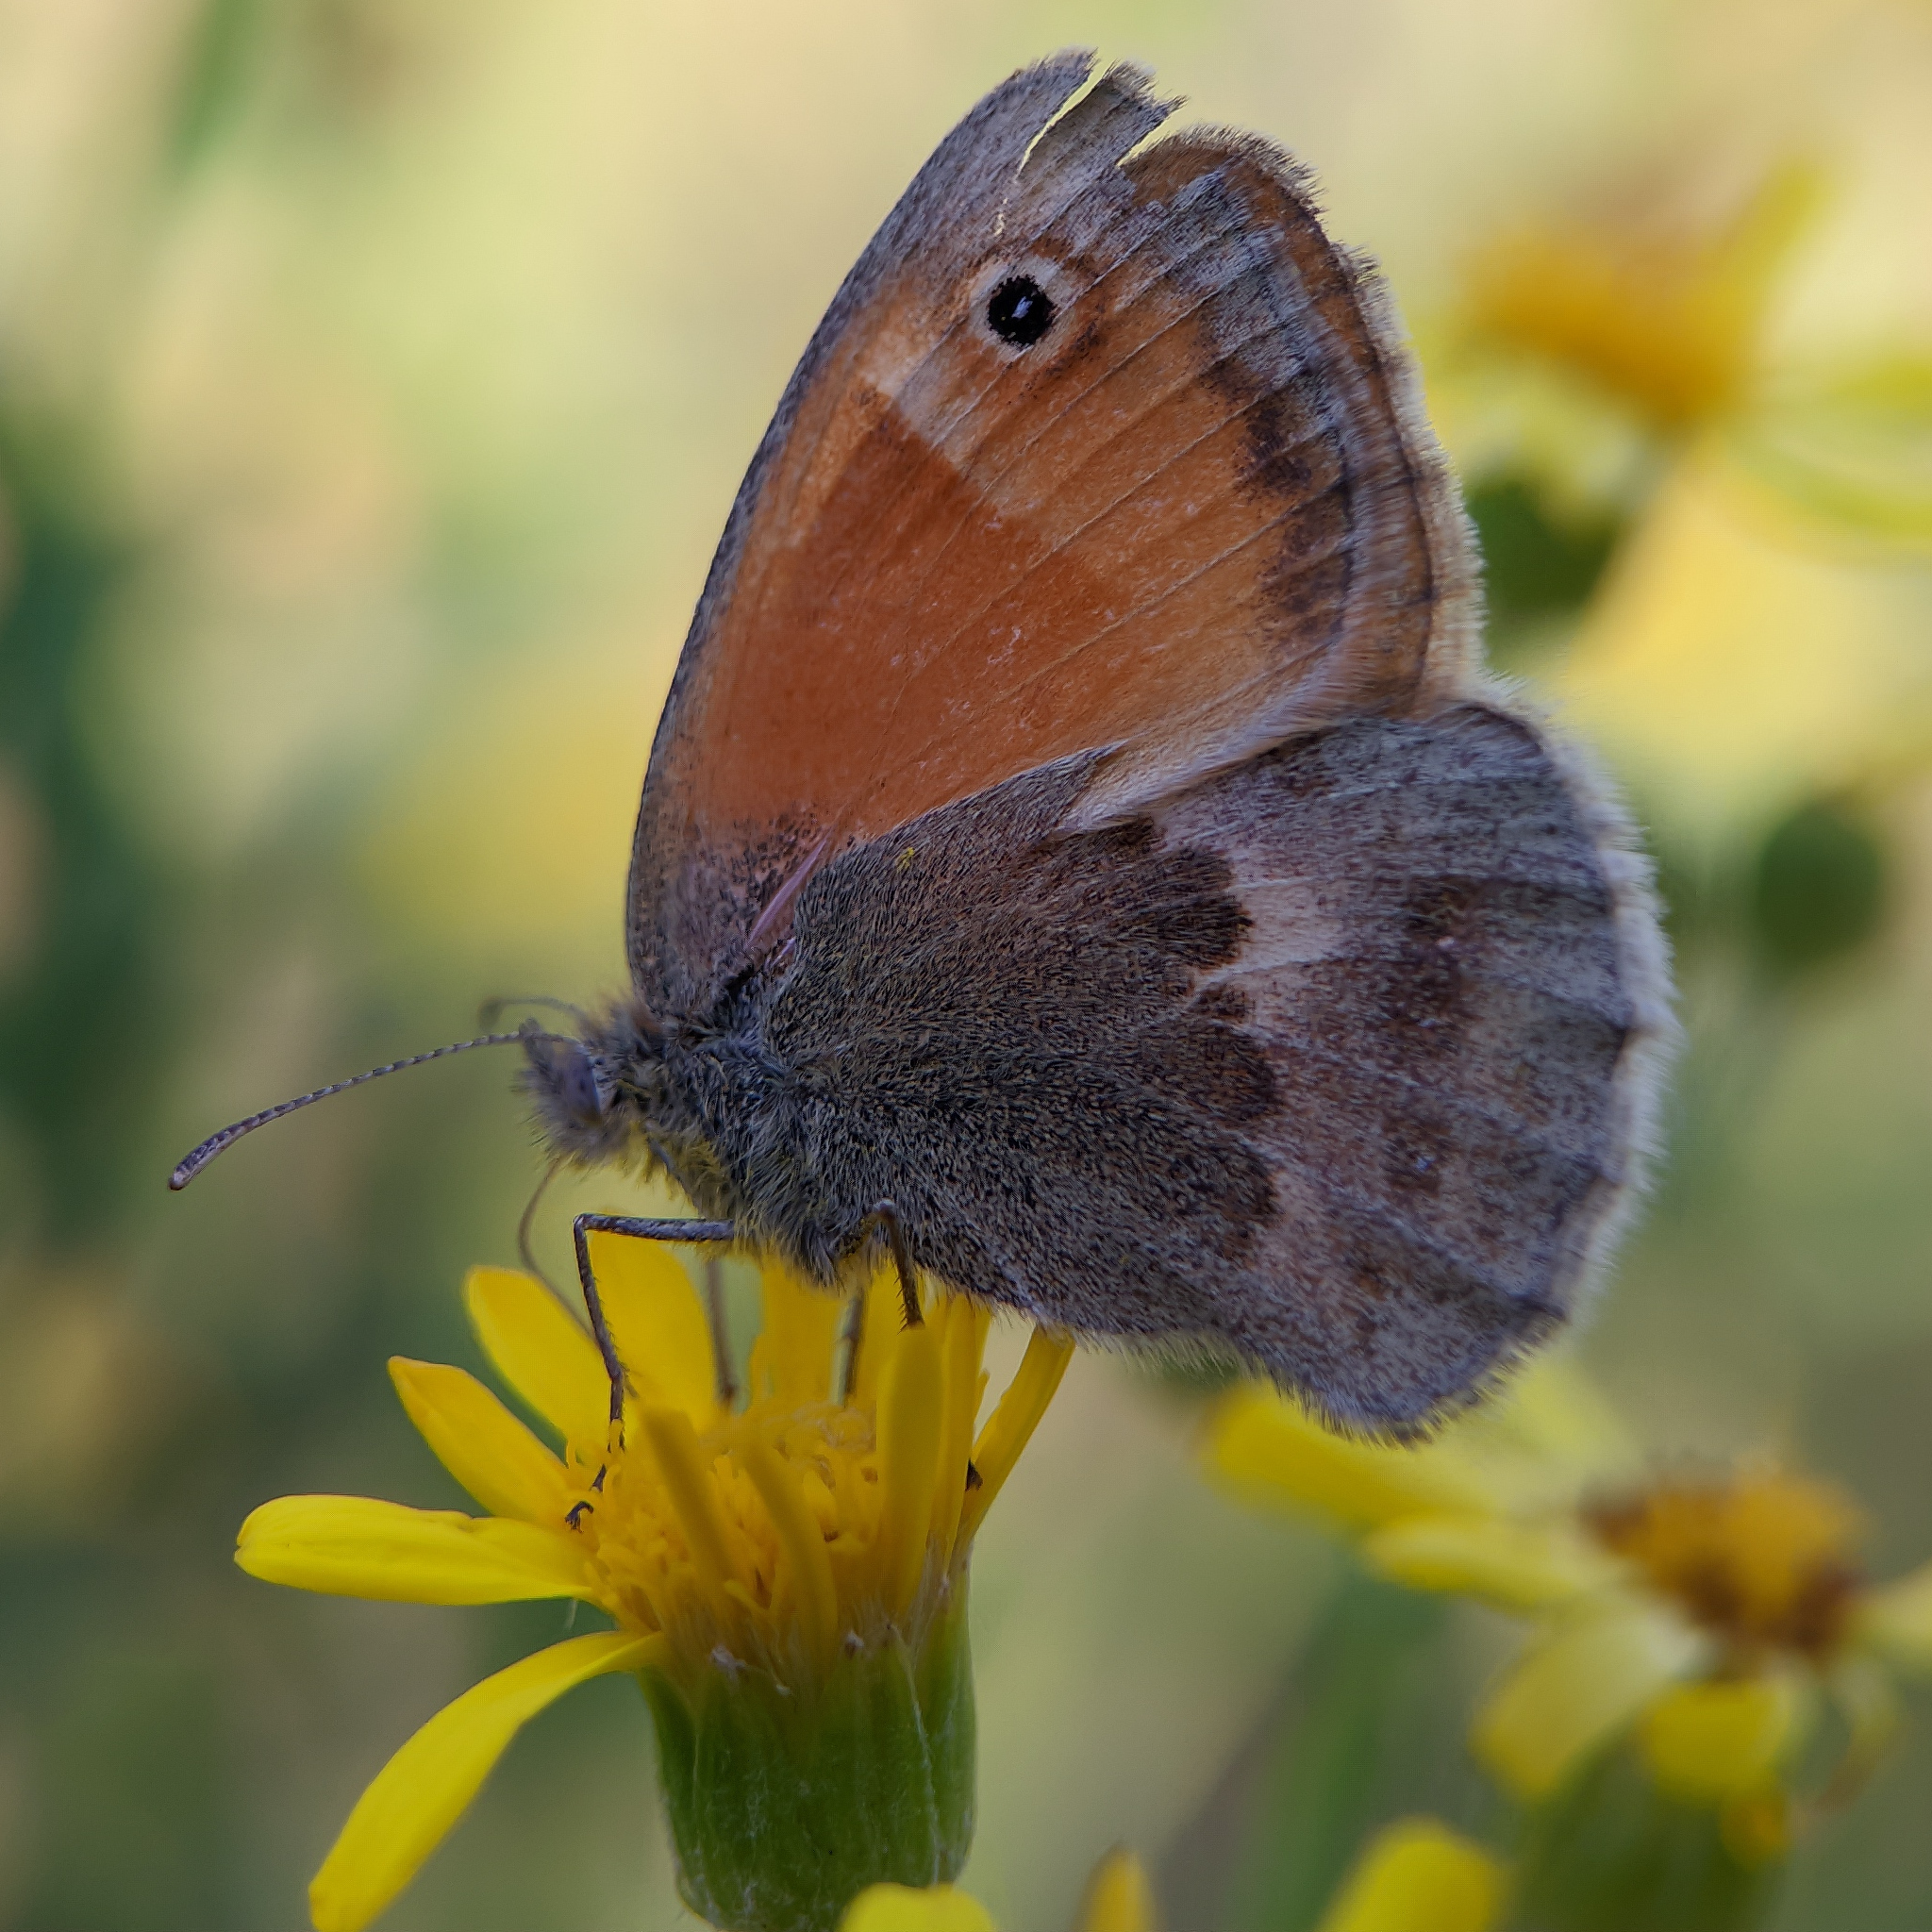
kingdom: Animalia
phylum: Arthropoda
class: Insecta
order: Lepidoptera
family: Nymphalidae
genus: Coenonympha
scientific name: Coenonympha pamphilus
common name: Small heath
